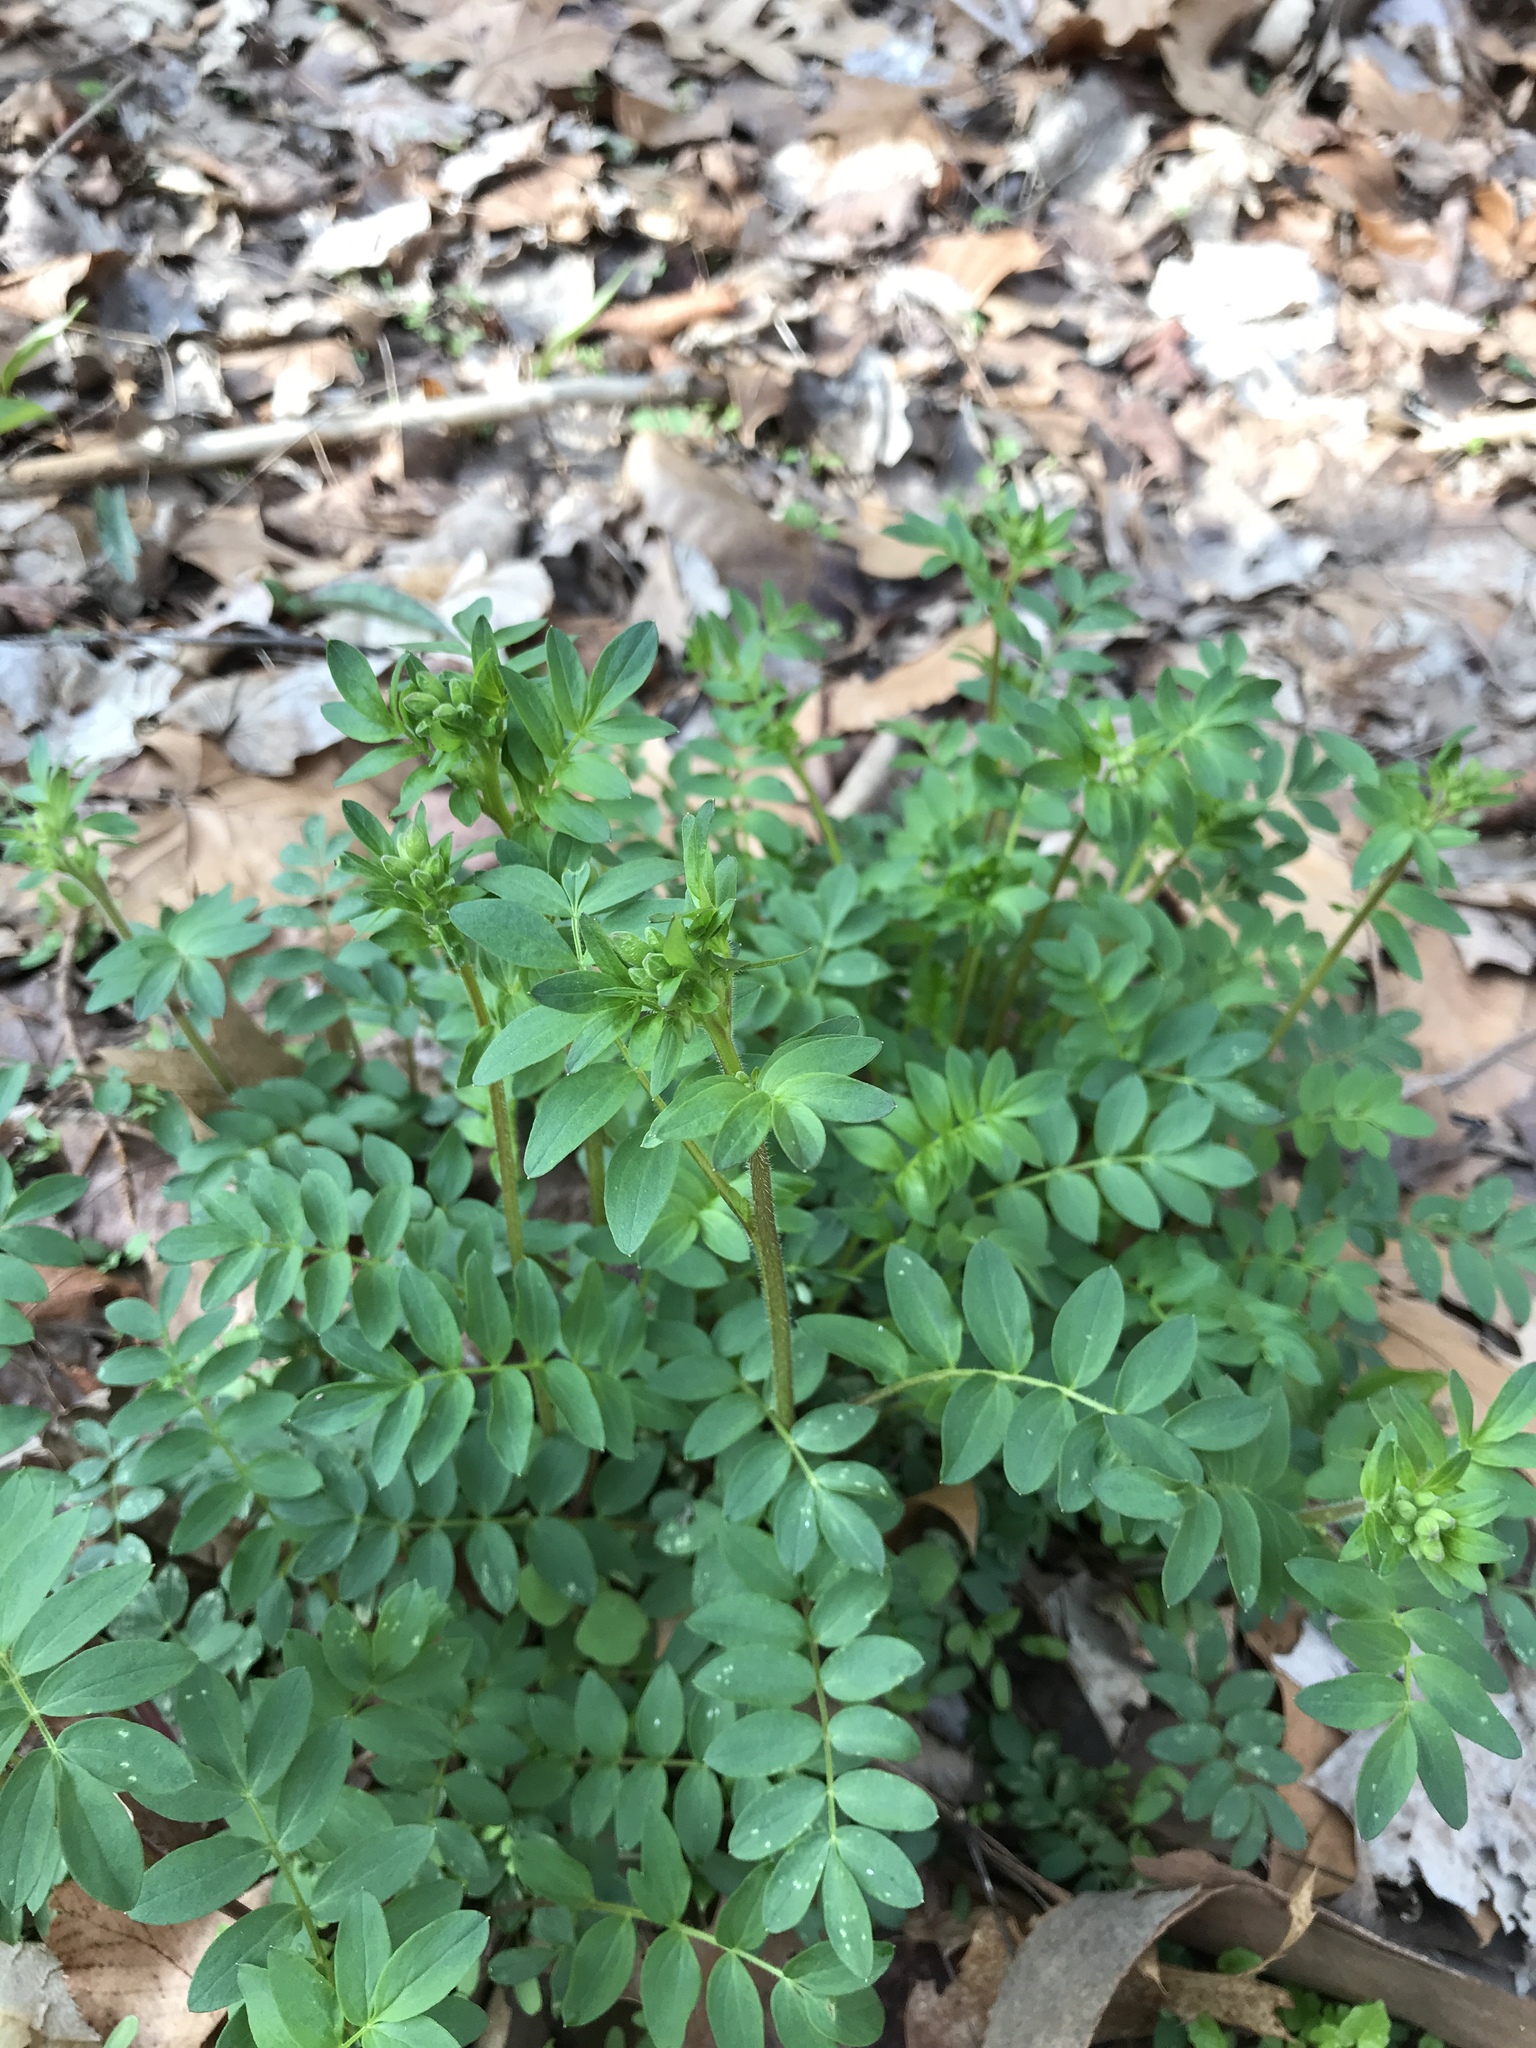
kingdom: Plantae
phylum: Tracheophyta
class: Magnoliopsida
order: Ericales
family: Polemoniaceae
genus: Polemonium
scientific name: Polemonium reptans
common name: Creeping jacob's-ladder
